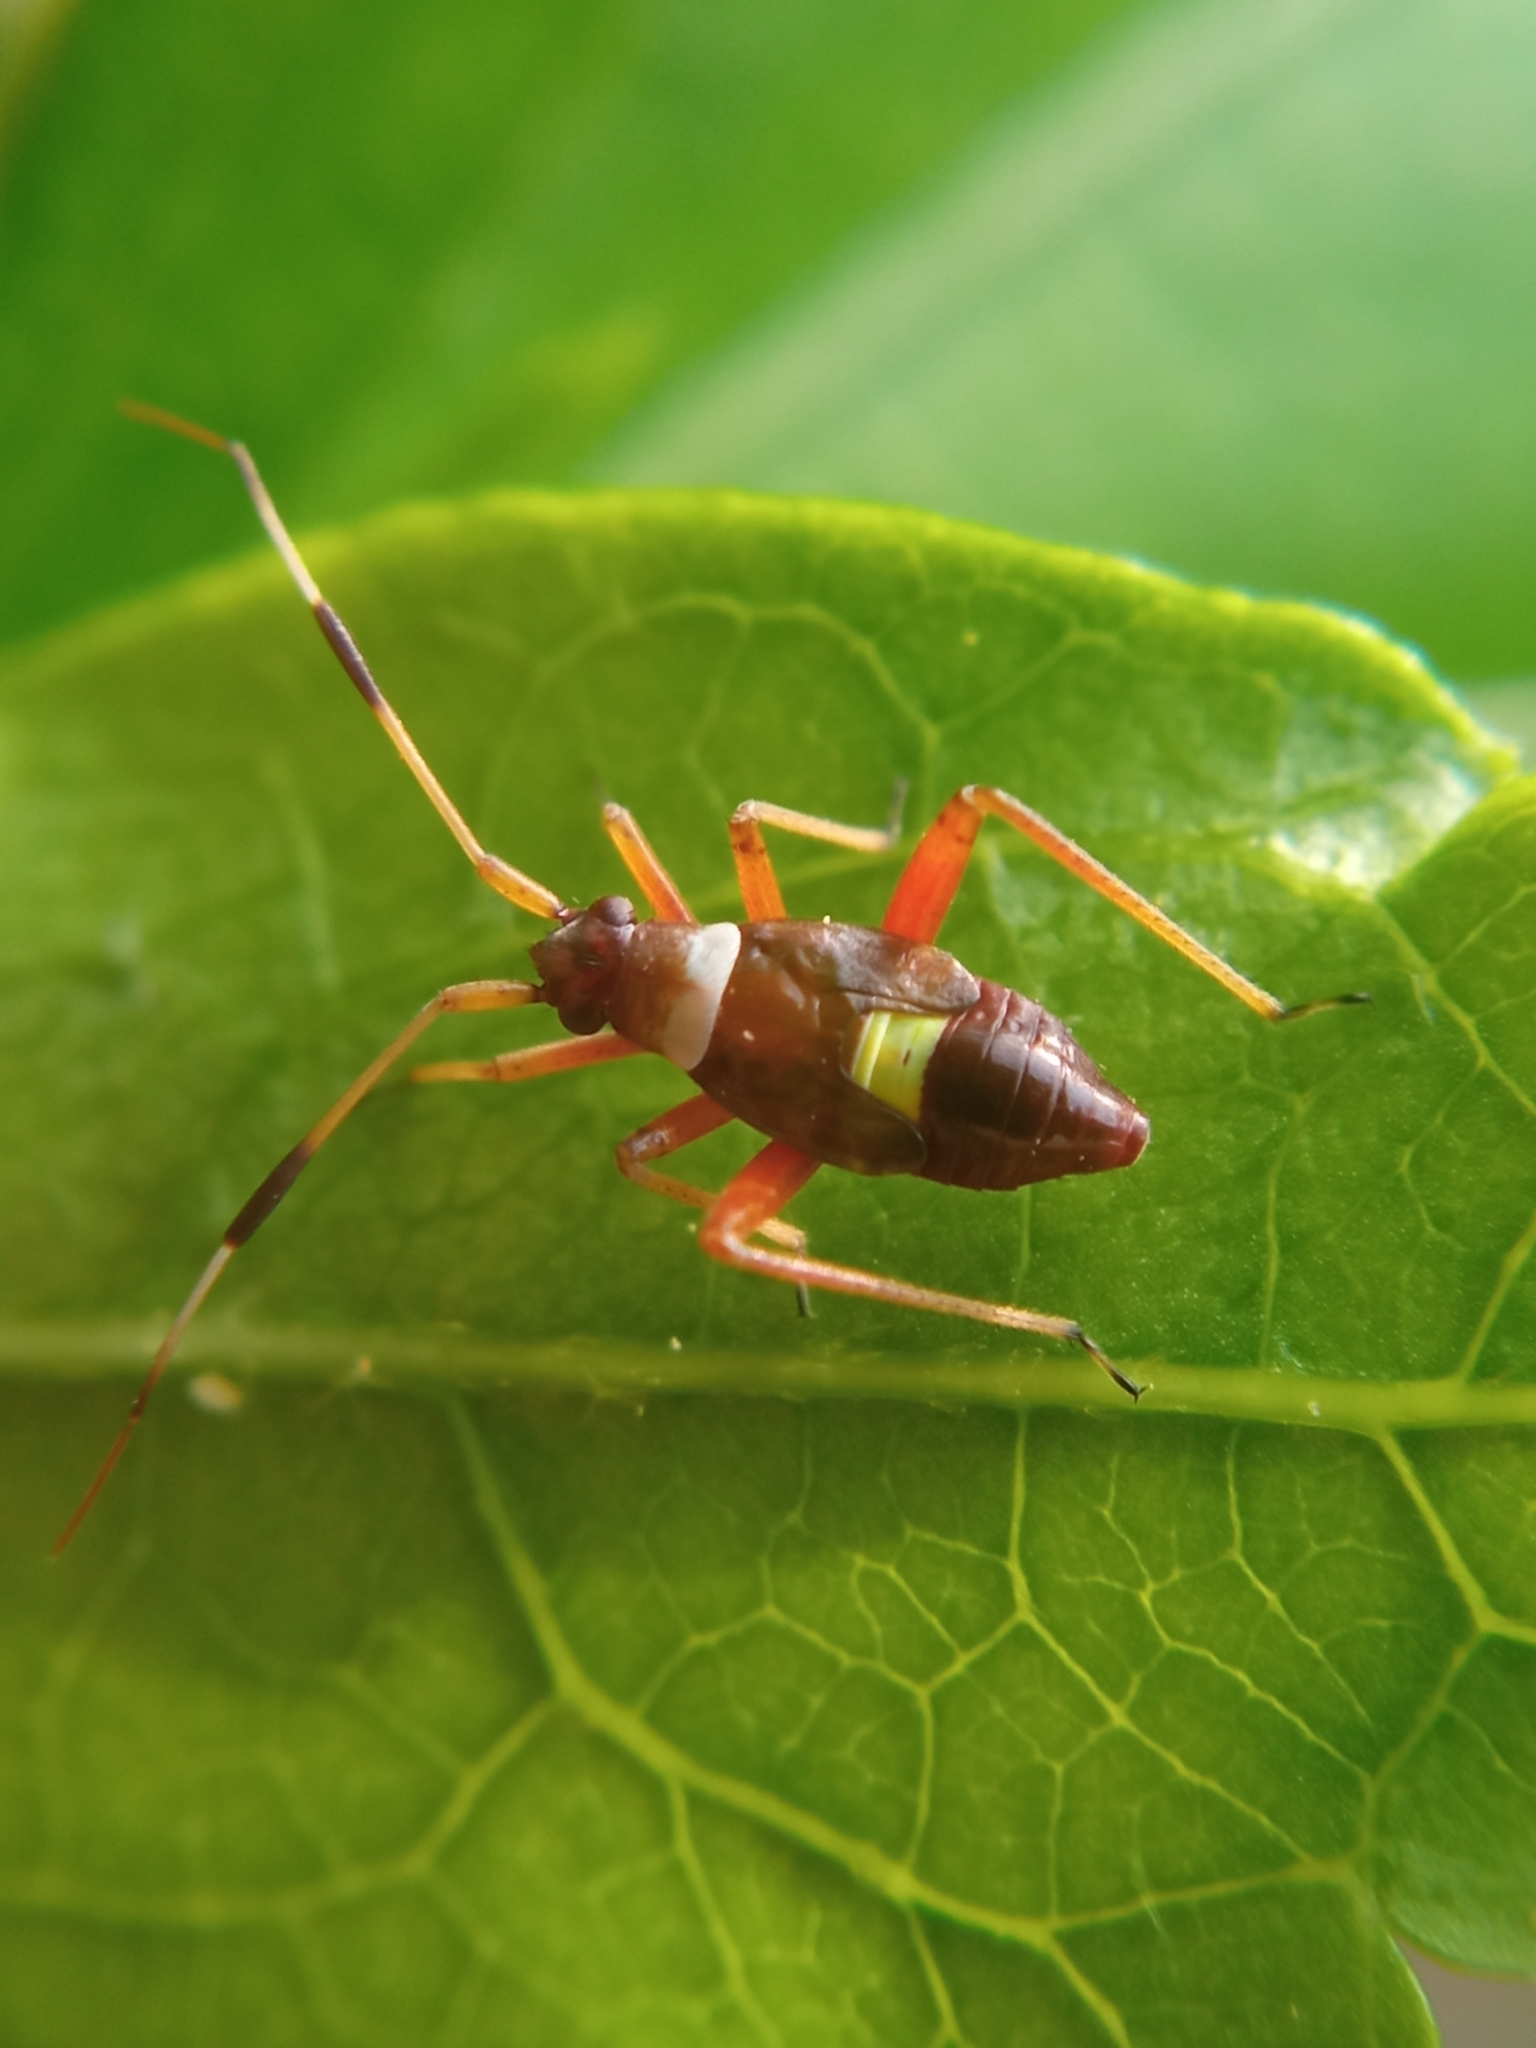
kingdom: Animalia
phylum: Arthropoda
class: Insecta
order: Hemiptera
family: Miridae
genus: Closterotomus
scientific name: Closterotomus biclavatus
